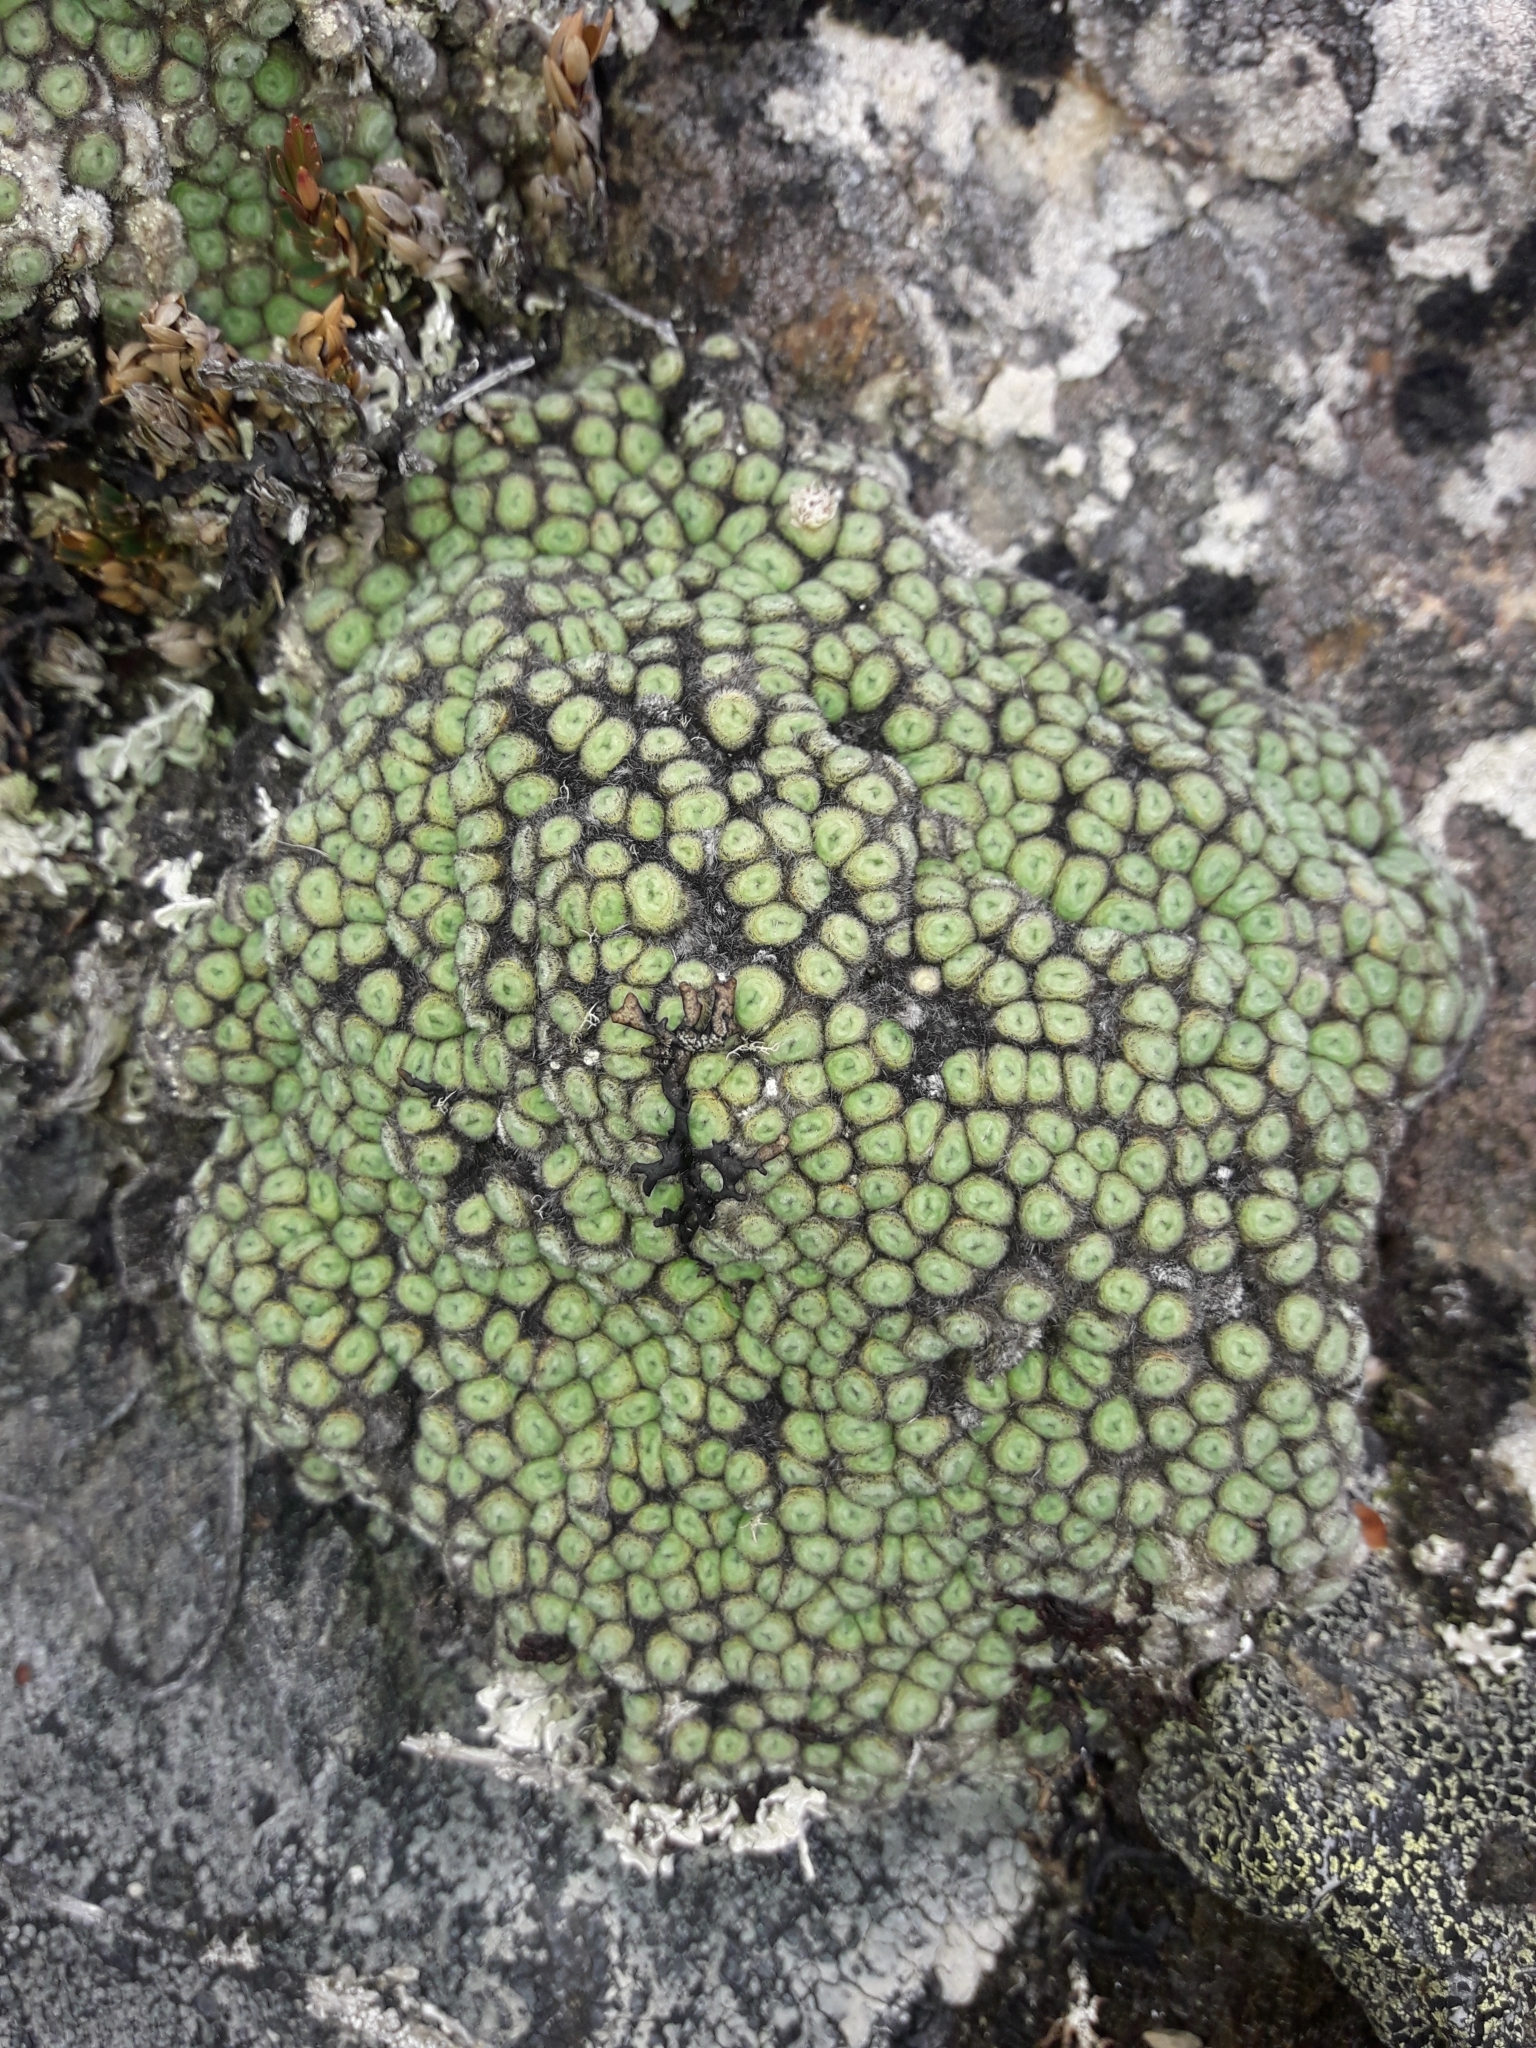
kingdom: Plantae
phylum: Tracheophyta
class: Magnoliopsida
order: Asterales
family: Asteraceae
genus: Raoulia
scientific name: Raoulia rubra
